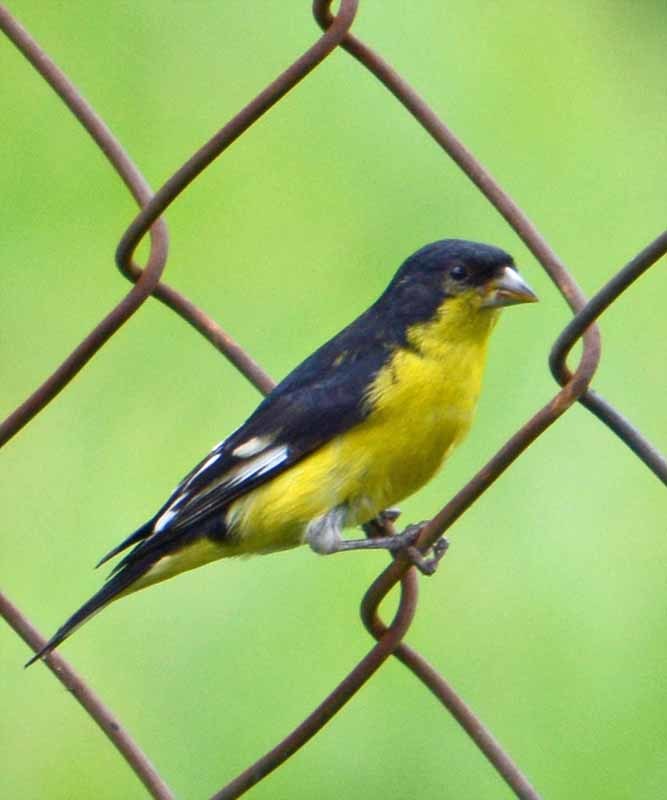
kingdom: Animalia
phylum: Chordata
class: Aves
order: Passeriformes
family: Fringillidae
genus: Spinus
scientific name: Spinus psaltria
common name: Lesser goldfinch
